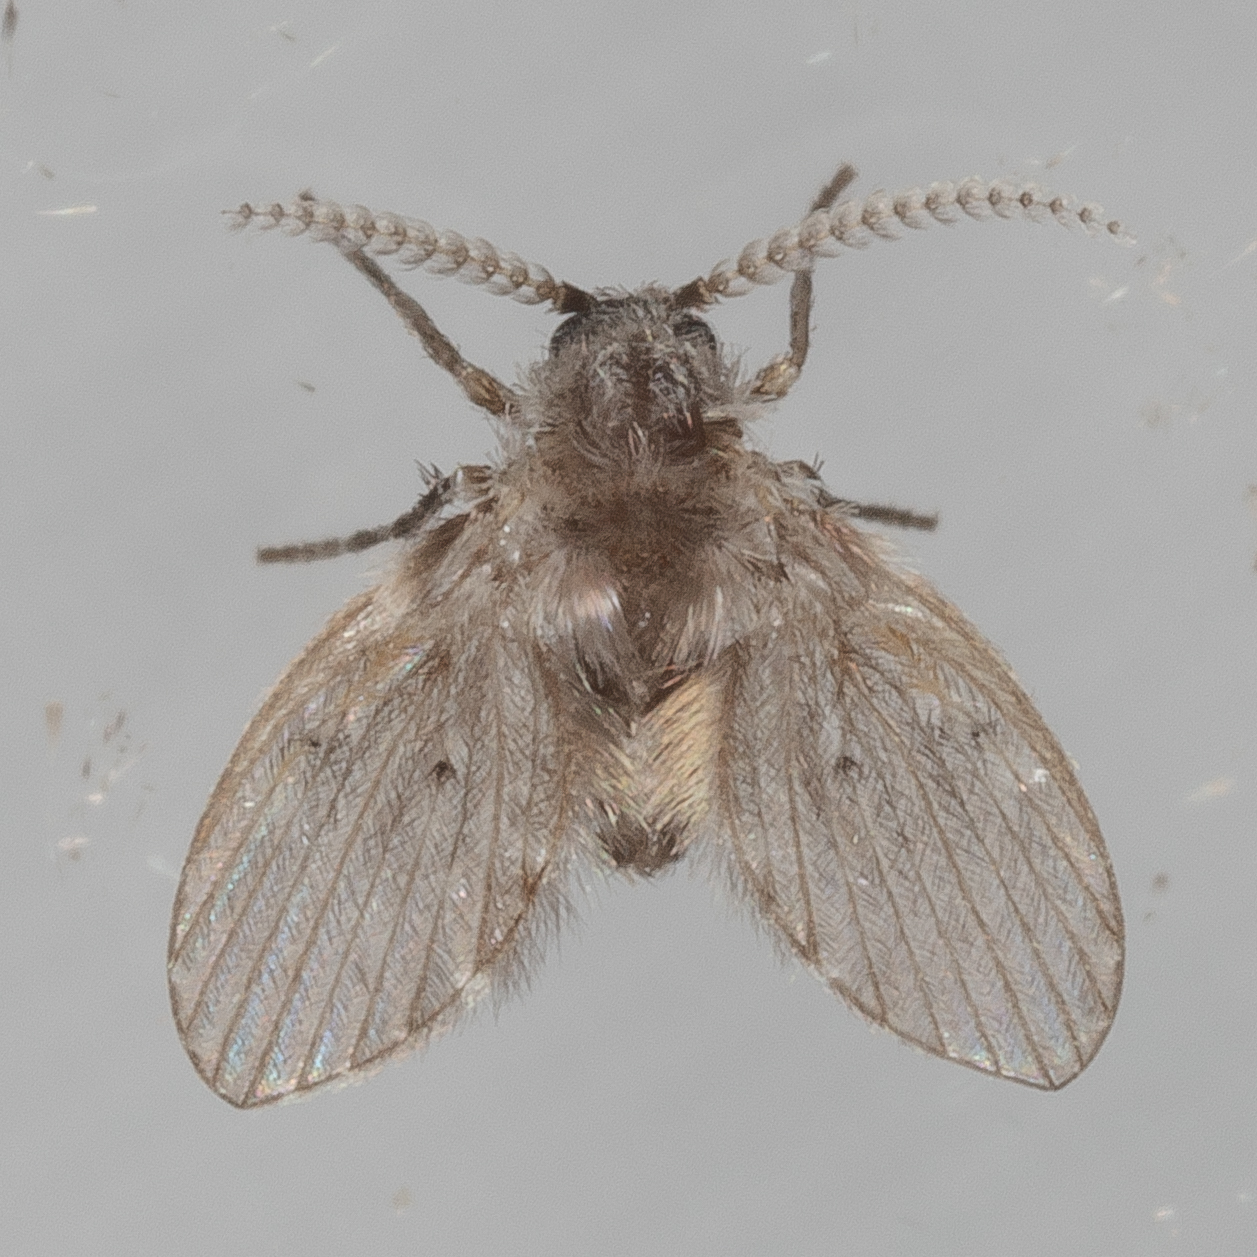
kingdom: Animalia
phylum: Arthropoda
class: Insecta
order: Diptera
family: Psychodidae
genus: Clogmia
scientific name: Clogmia albipunctatus
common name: White-spotted moth fly
